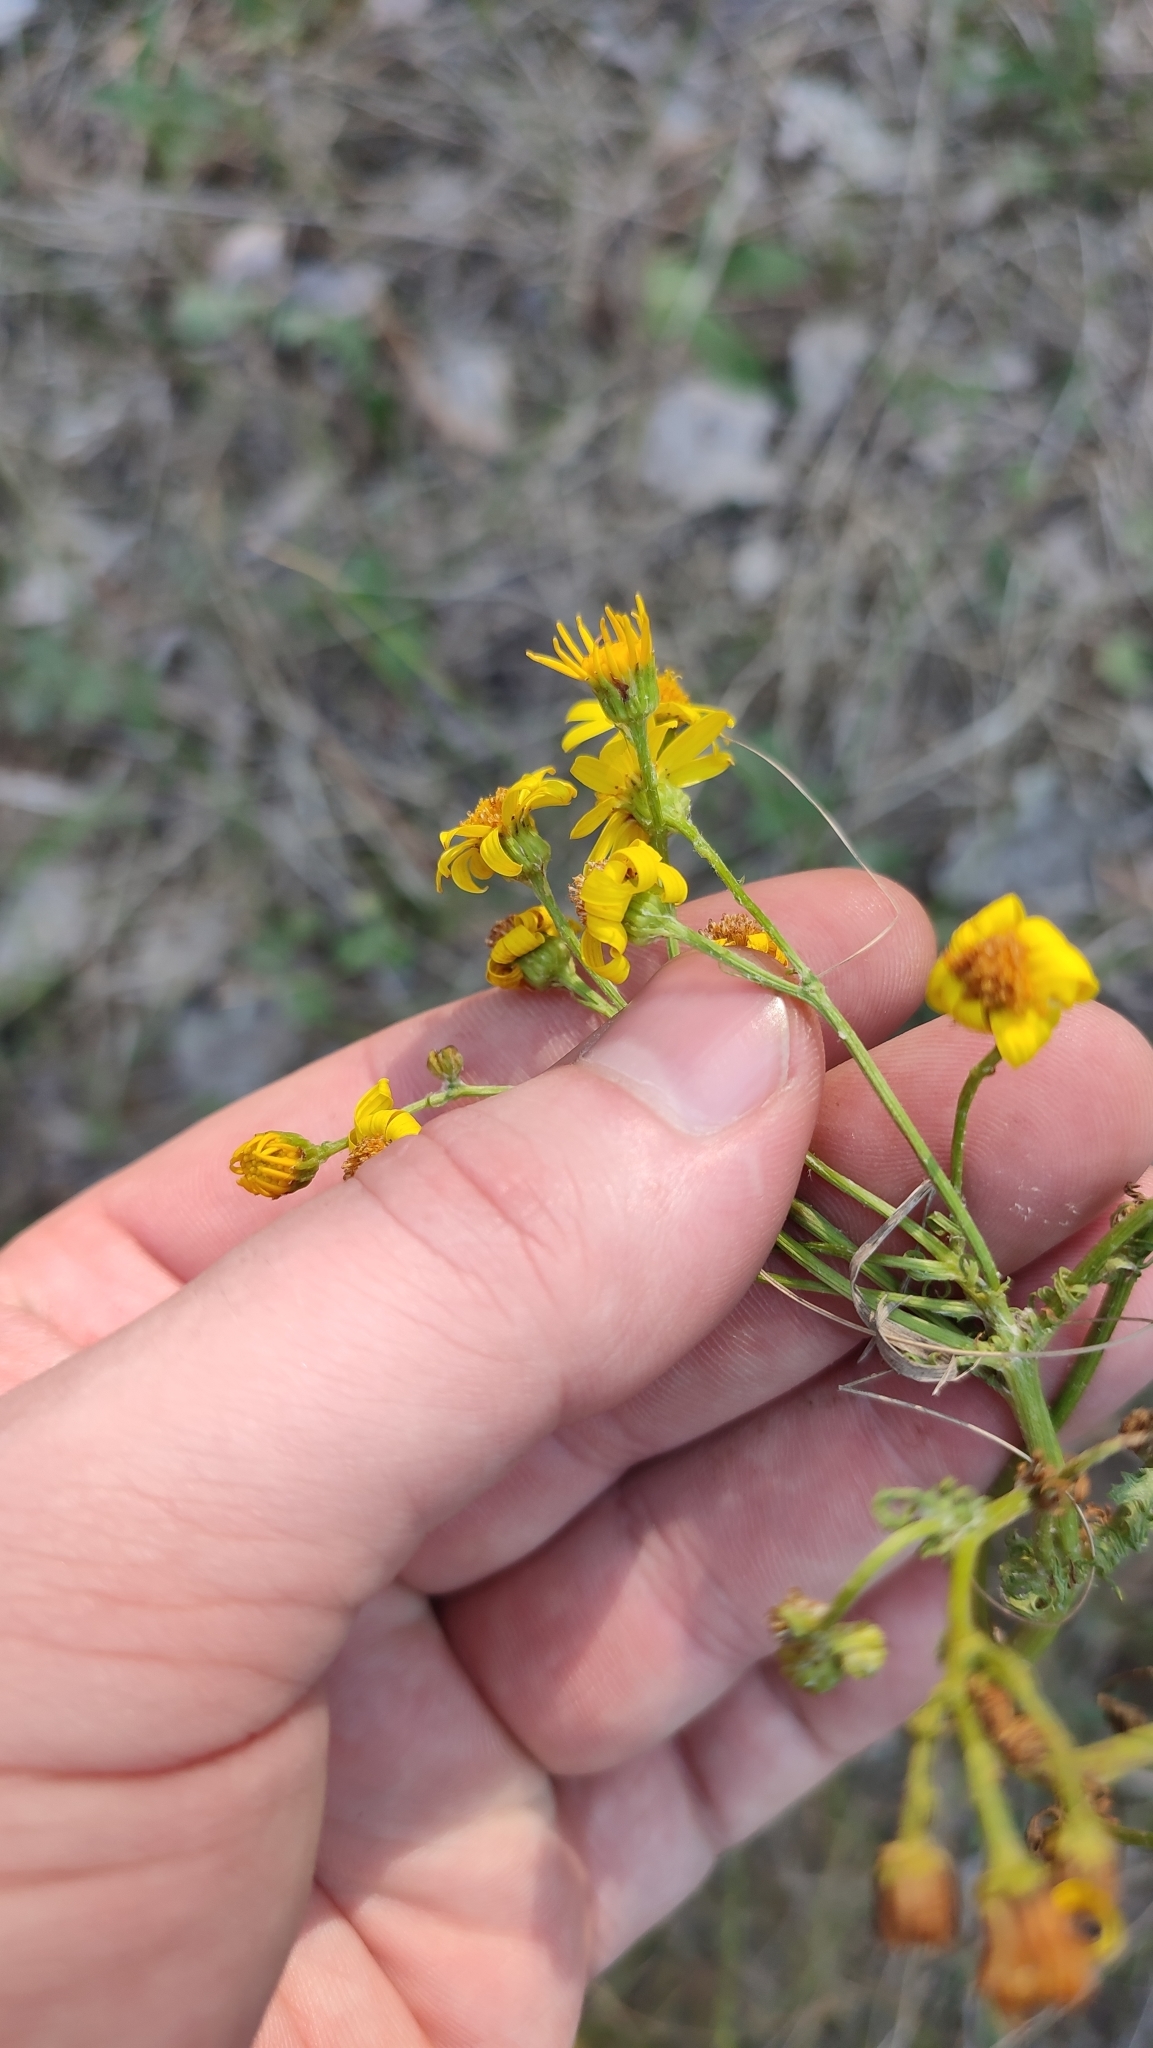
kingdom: Plantae
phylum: Tracheophyta
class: Magnoliopsida
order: Asterales
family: Asteraceae
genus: Jacobaea
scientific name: Jacobaea vulgaris
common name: Stinking willie
